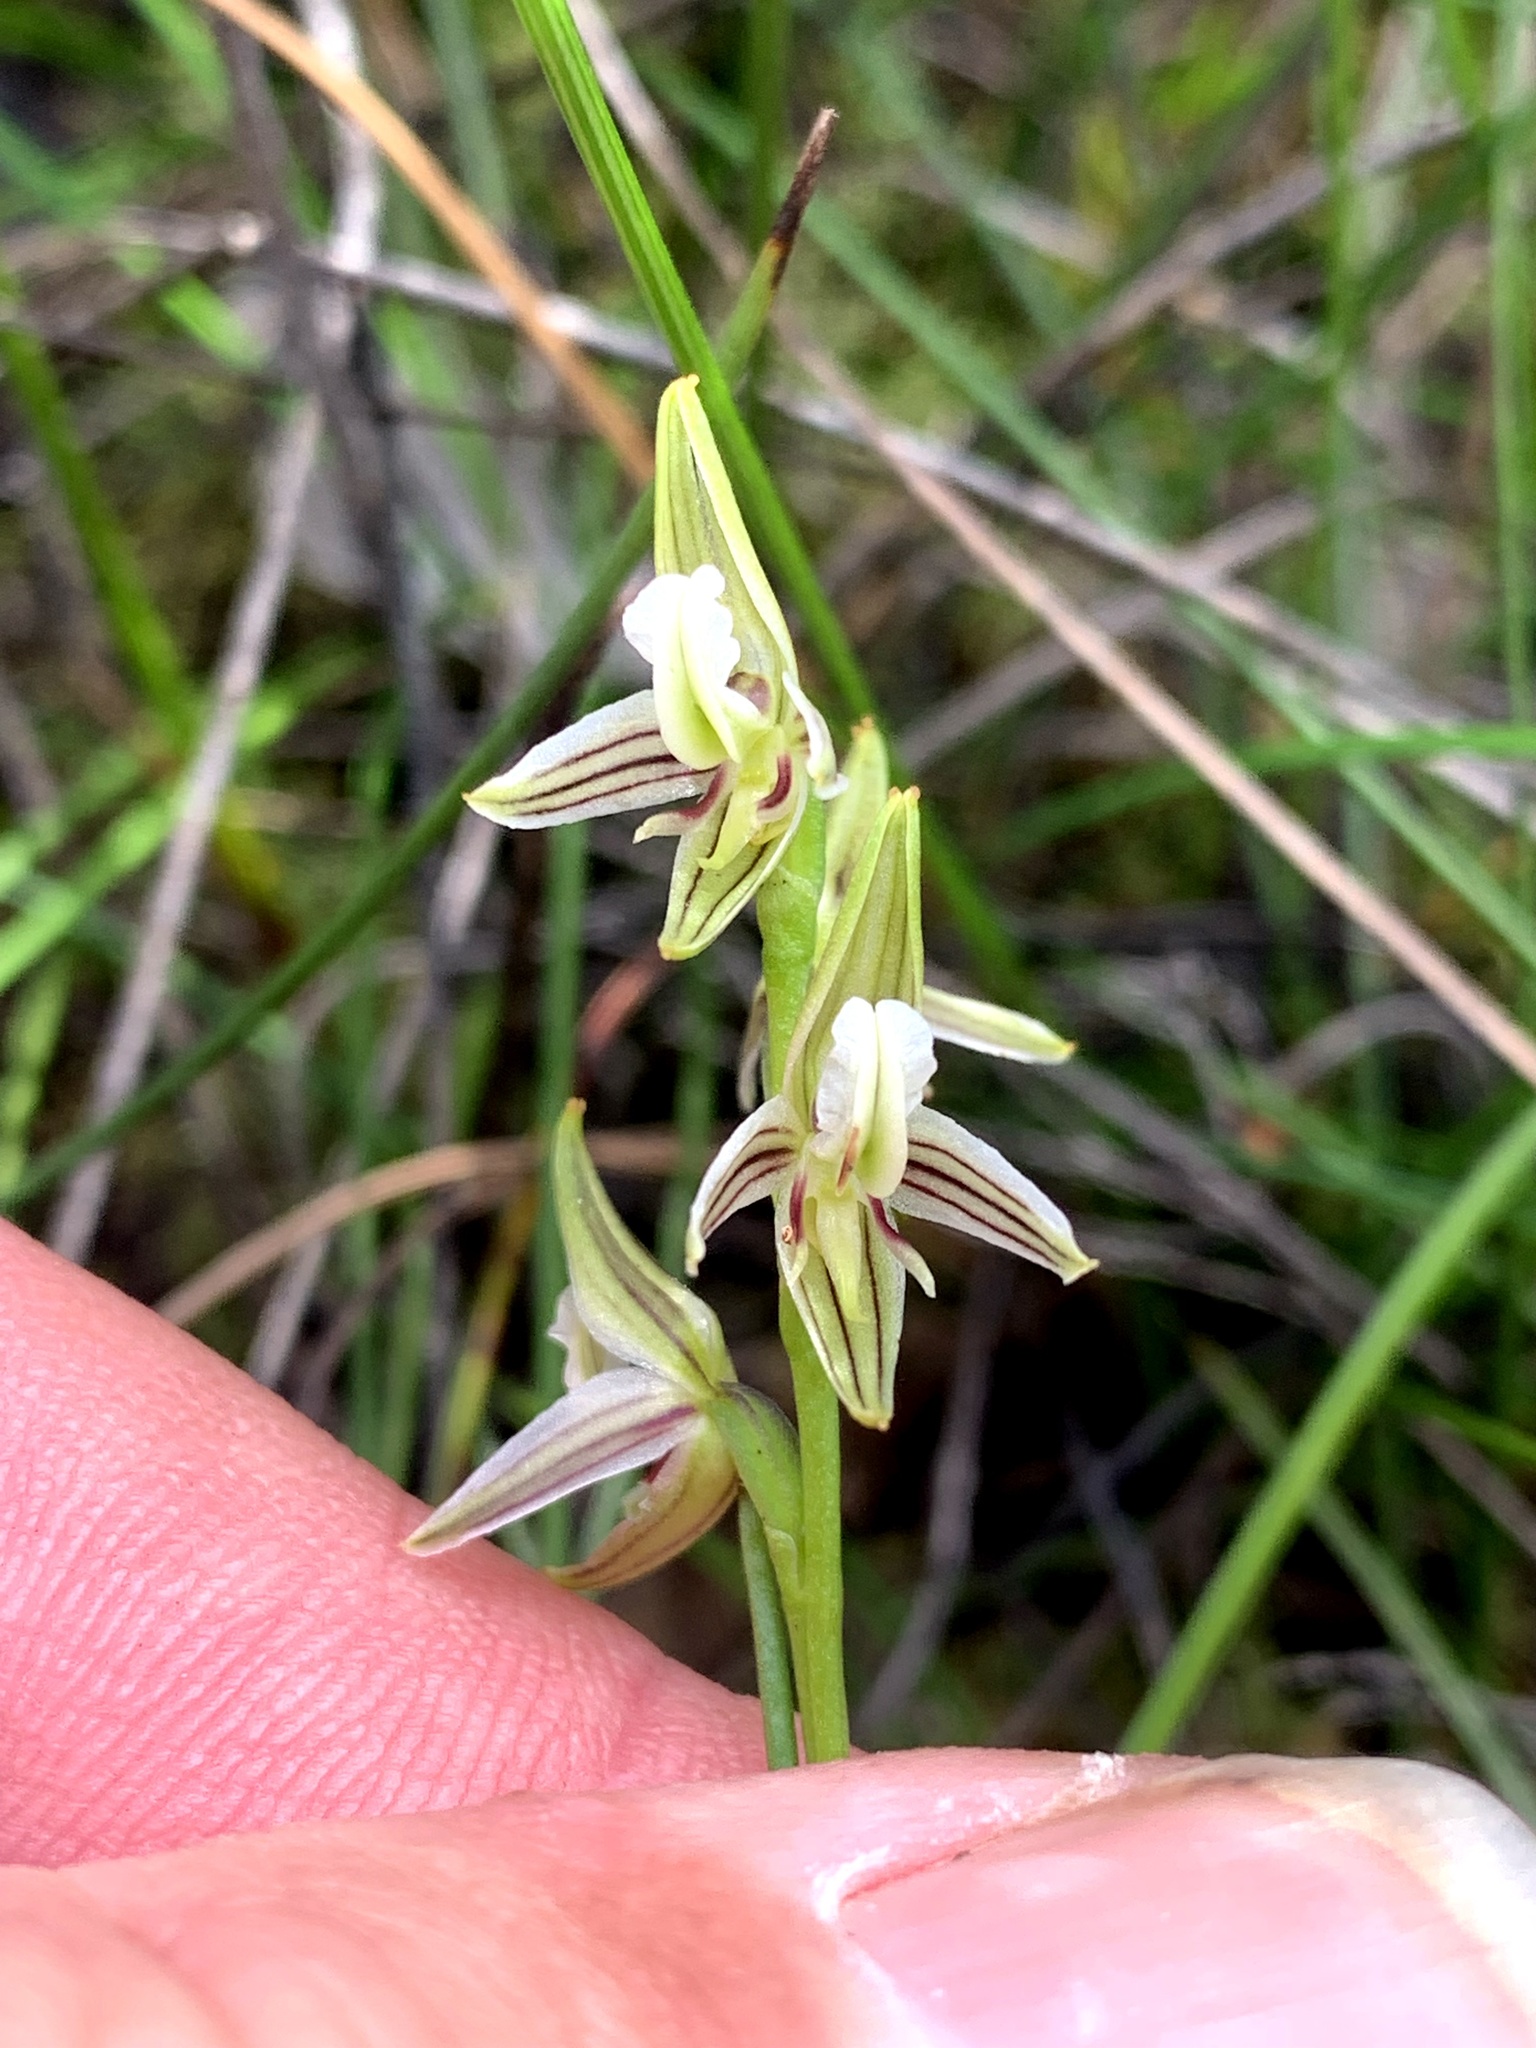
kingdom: Plantae
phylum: Tracheophyta
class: Liliopsida
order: Asparagales
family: Orchidaceae
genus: Prasophyllum
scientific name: Prasophyllum striatum
